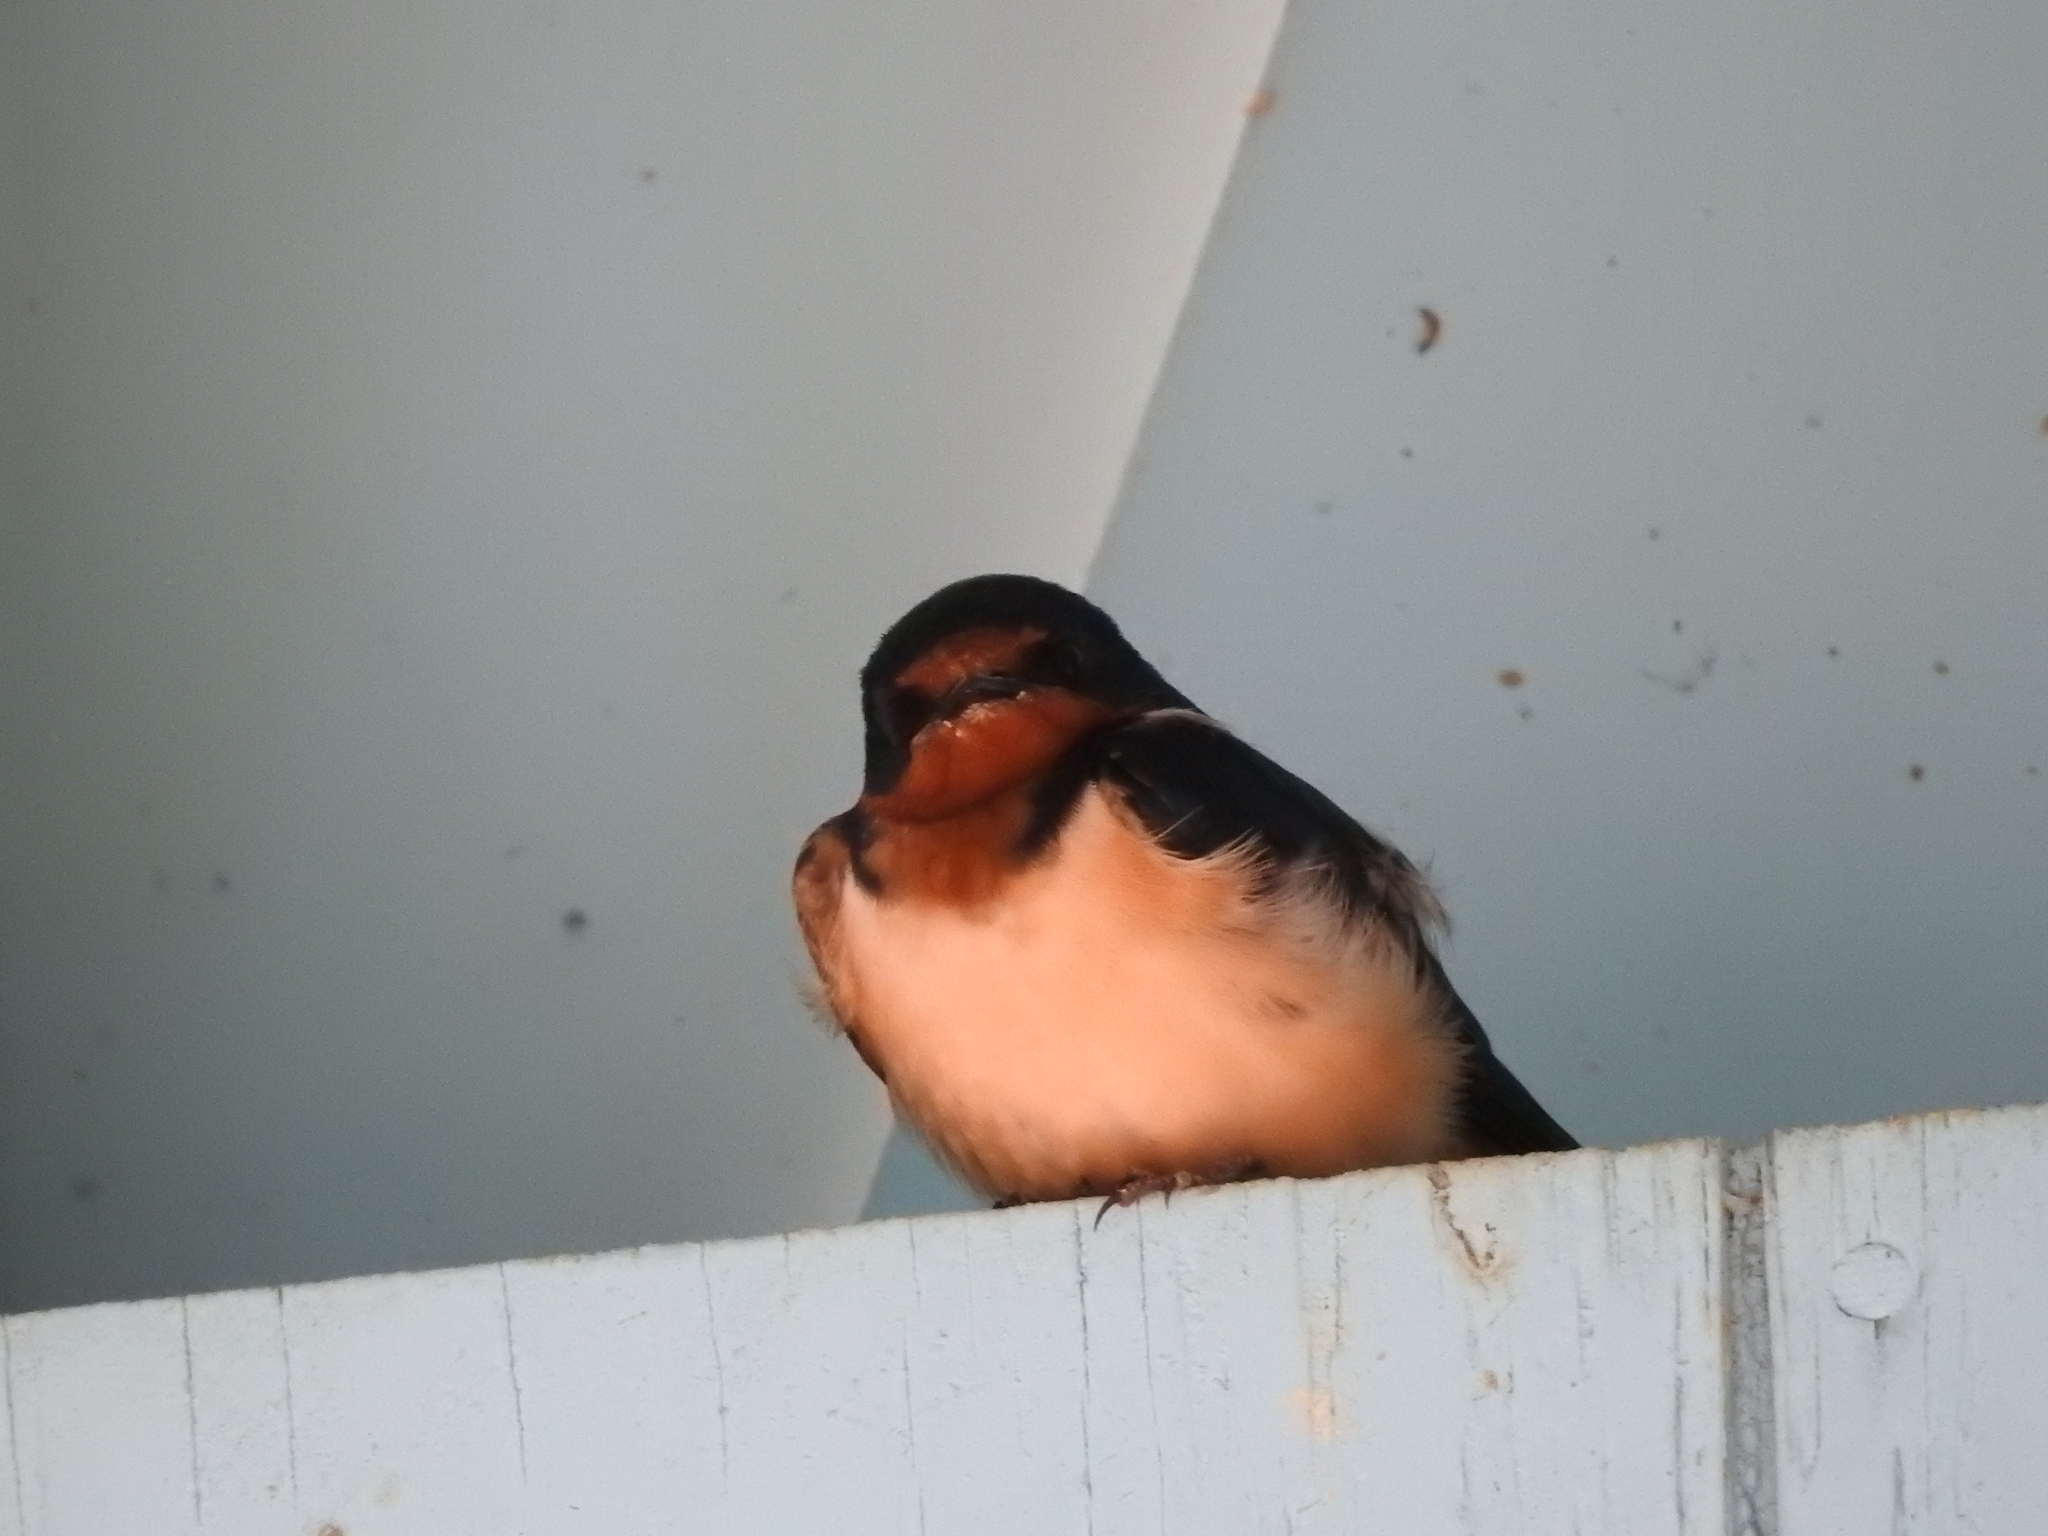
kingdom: Animalia
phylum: Chordata
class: Aves
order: Passeriformes
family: Hirundinidae
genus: Hirundo
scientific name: Hirundo rustica
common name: Barn swallow
